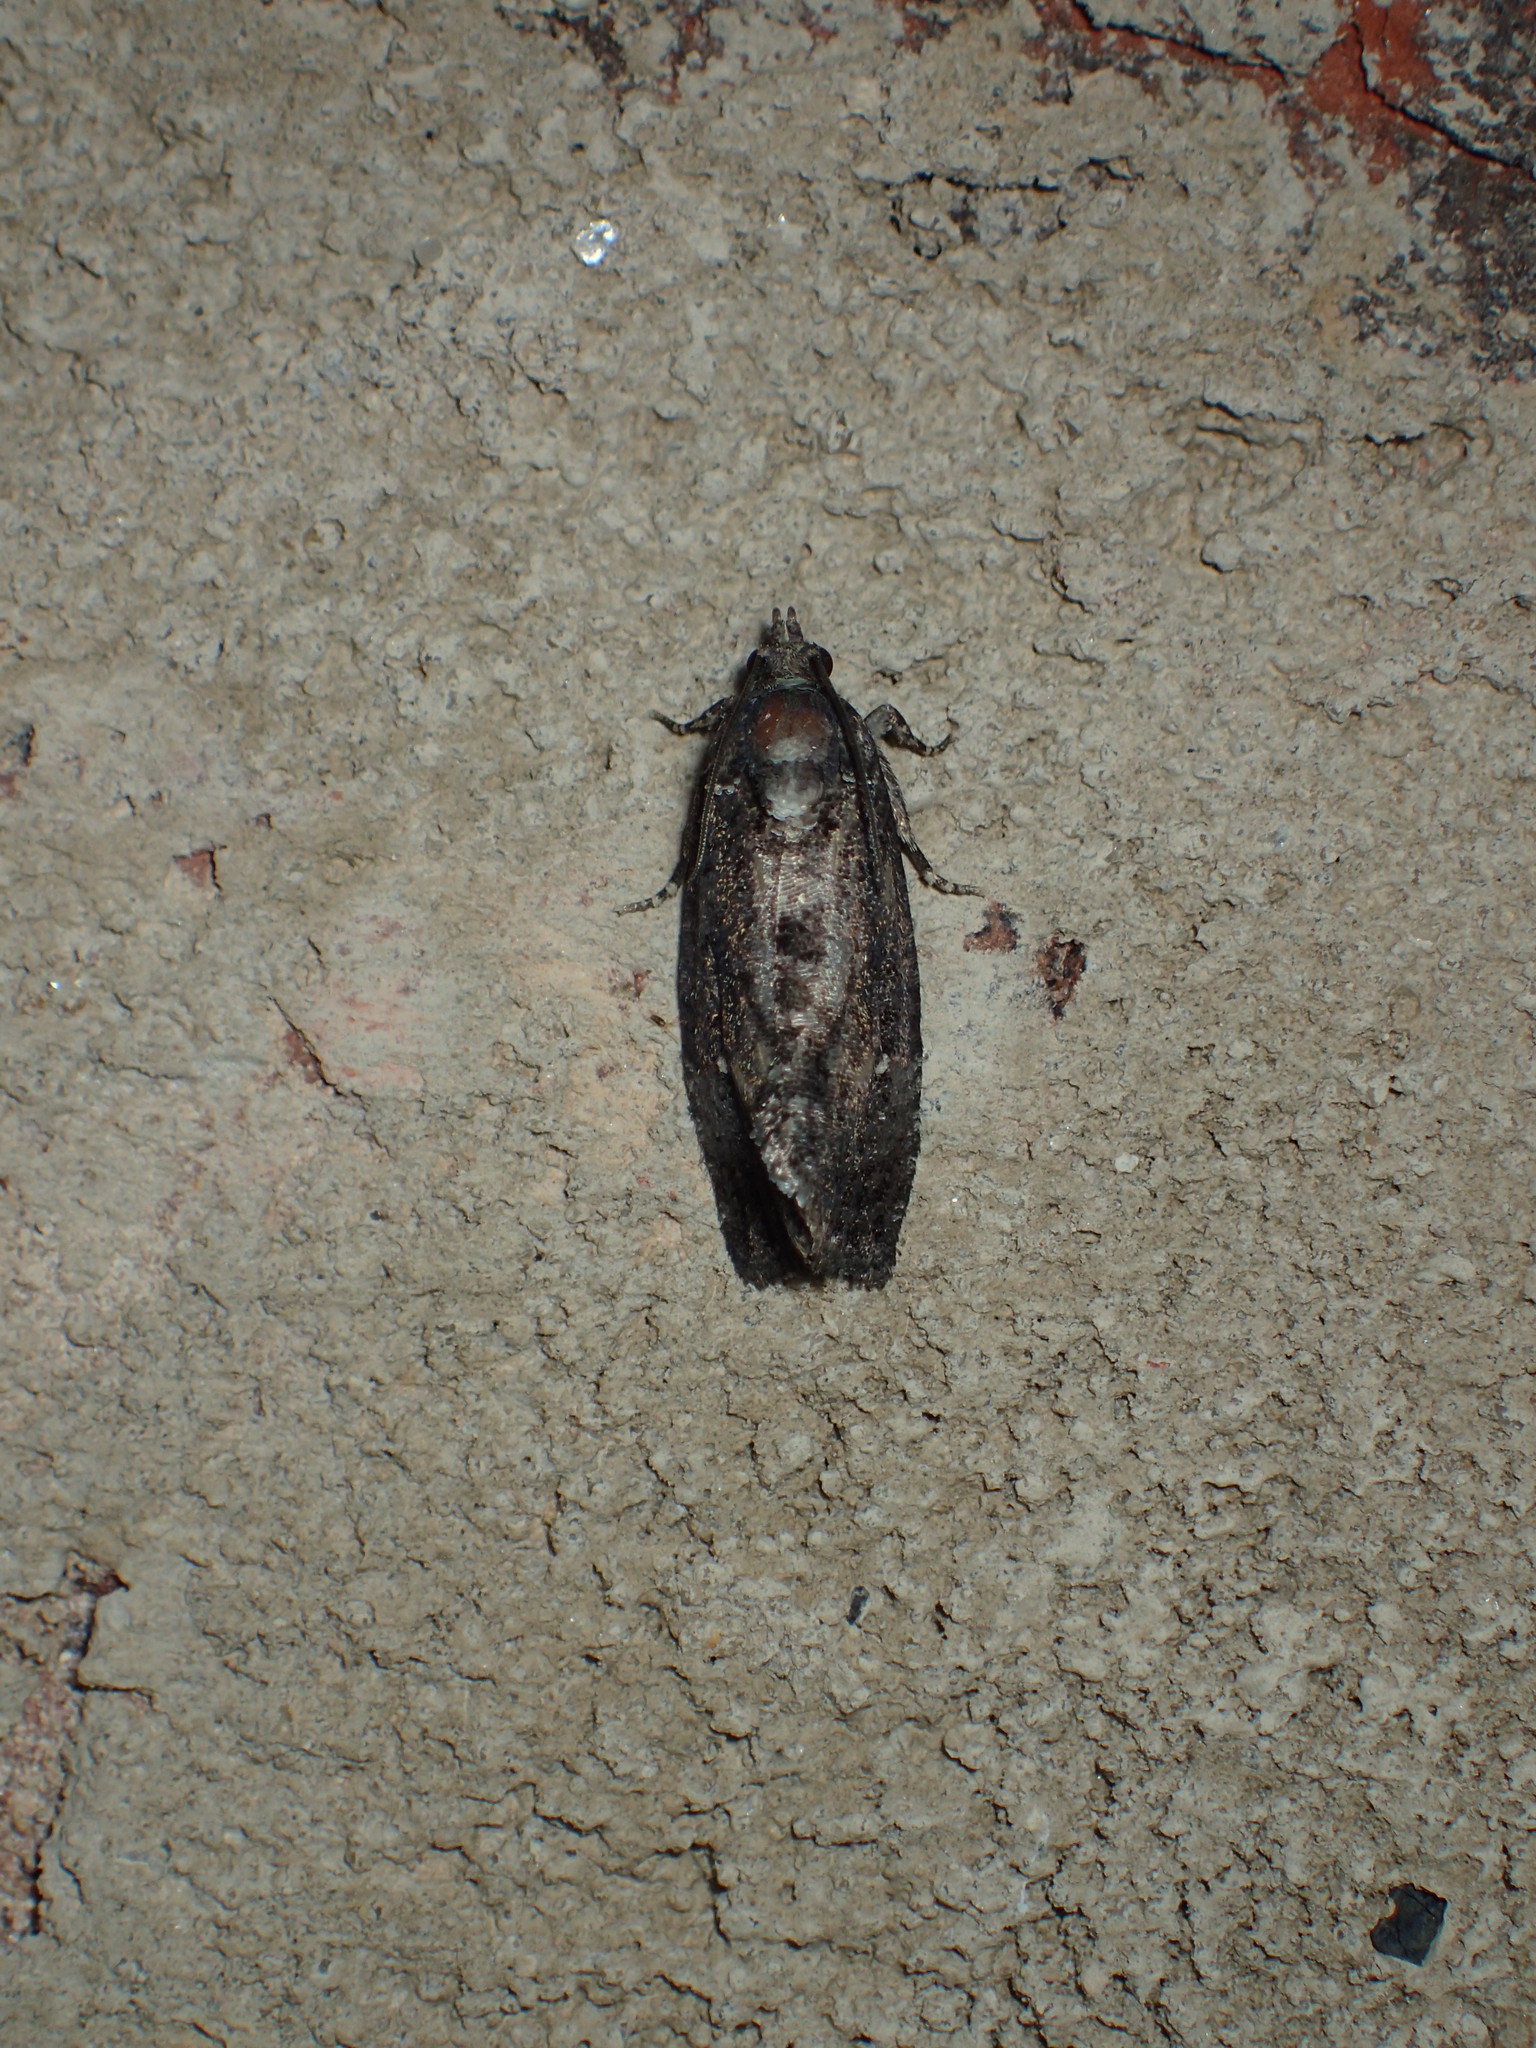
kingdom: Animalia
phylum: Arthropoda
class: Insecta
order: Lepidoptera
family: Tortricidae
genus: Gymnandrosoma
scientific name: Gymnandrosoma punctidiscanum
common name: Dotted ecdytolopha moth
